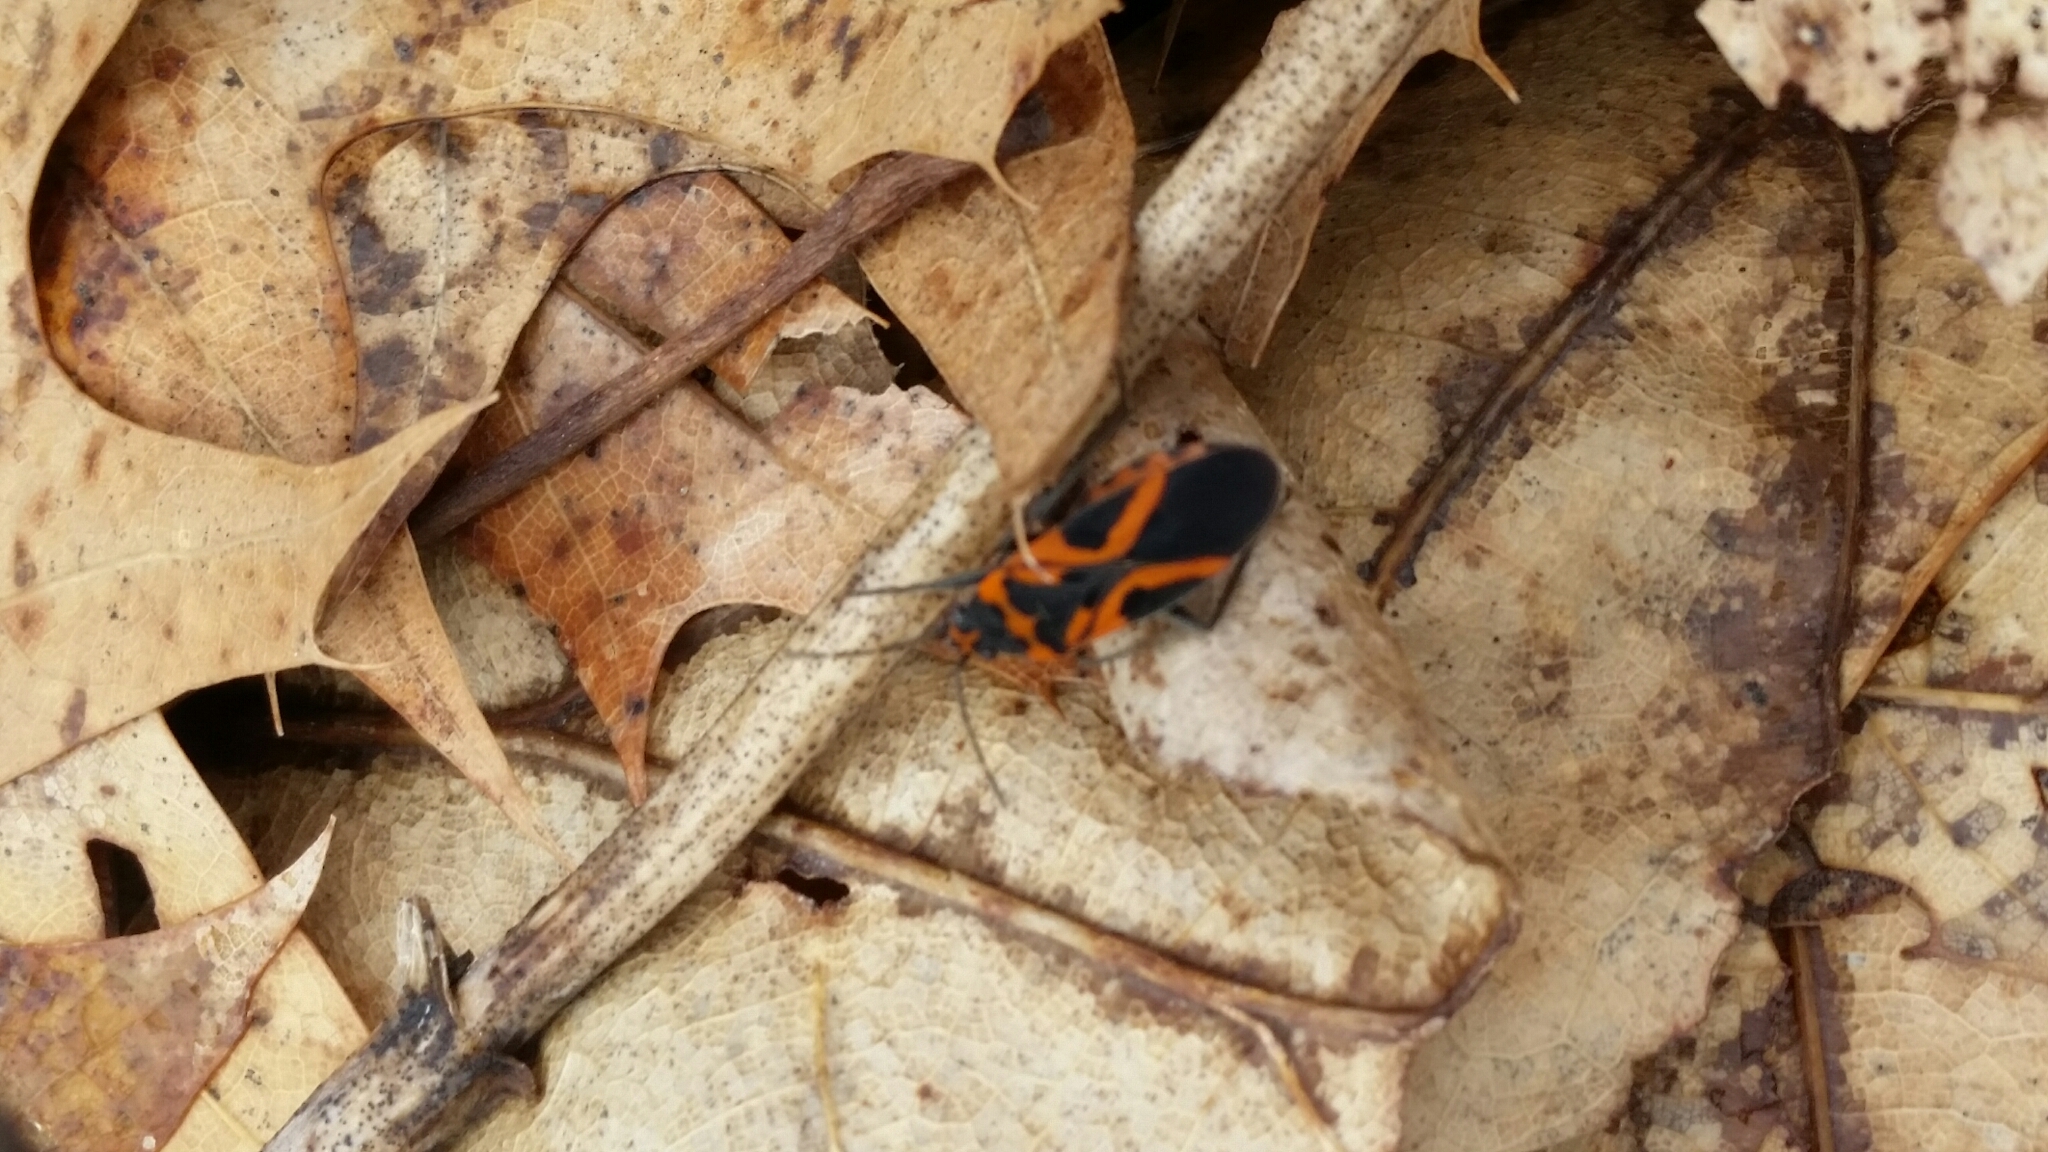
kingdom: Animalia
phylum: Arthropoda
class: Insecta
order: Hemiptera
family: Lygaeidae
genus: Lygaeus
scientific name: Lygaeus turcicus
